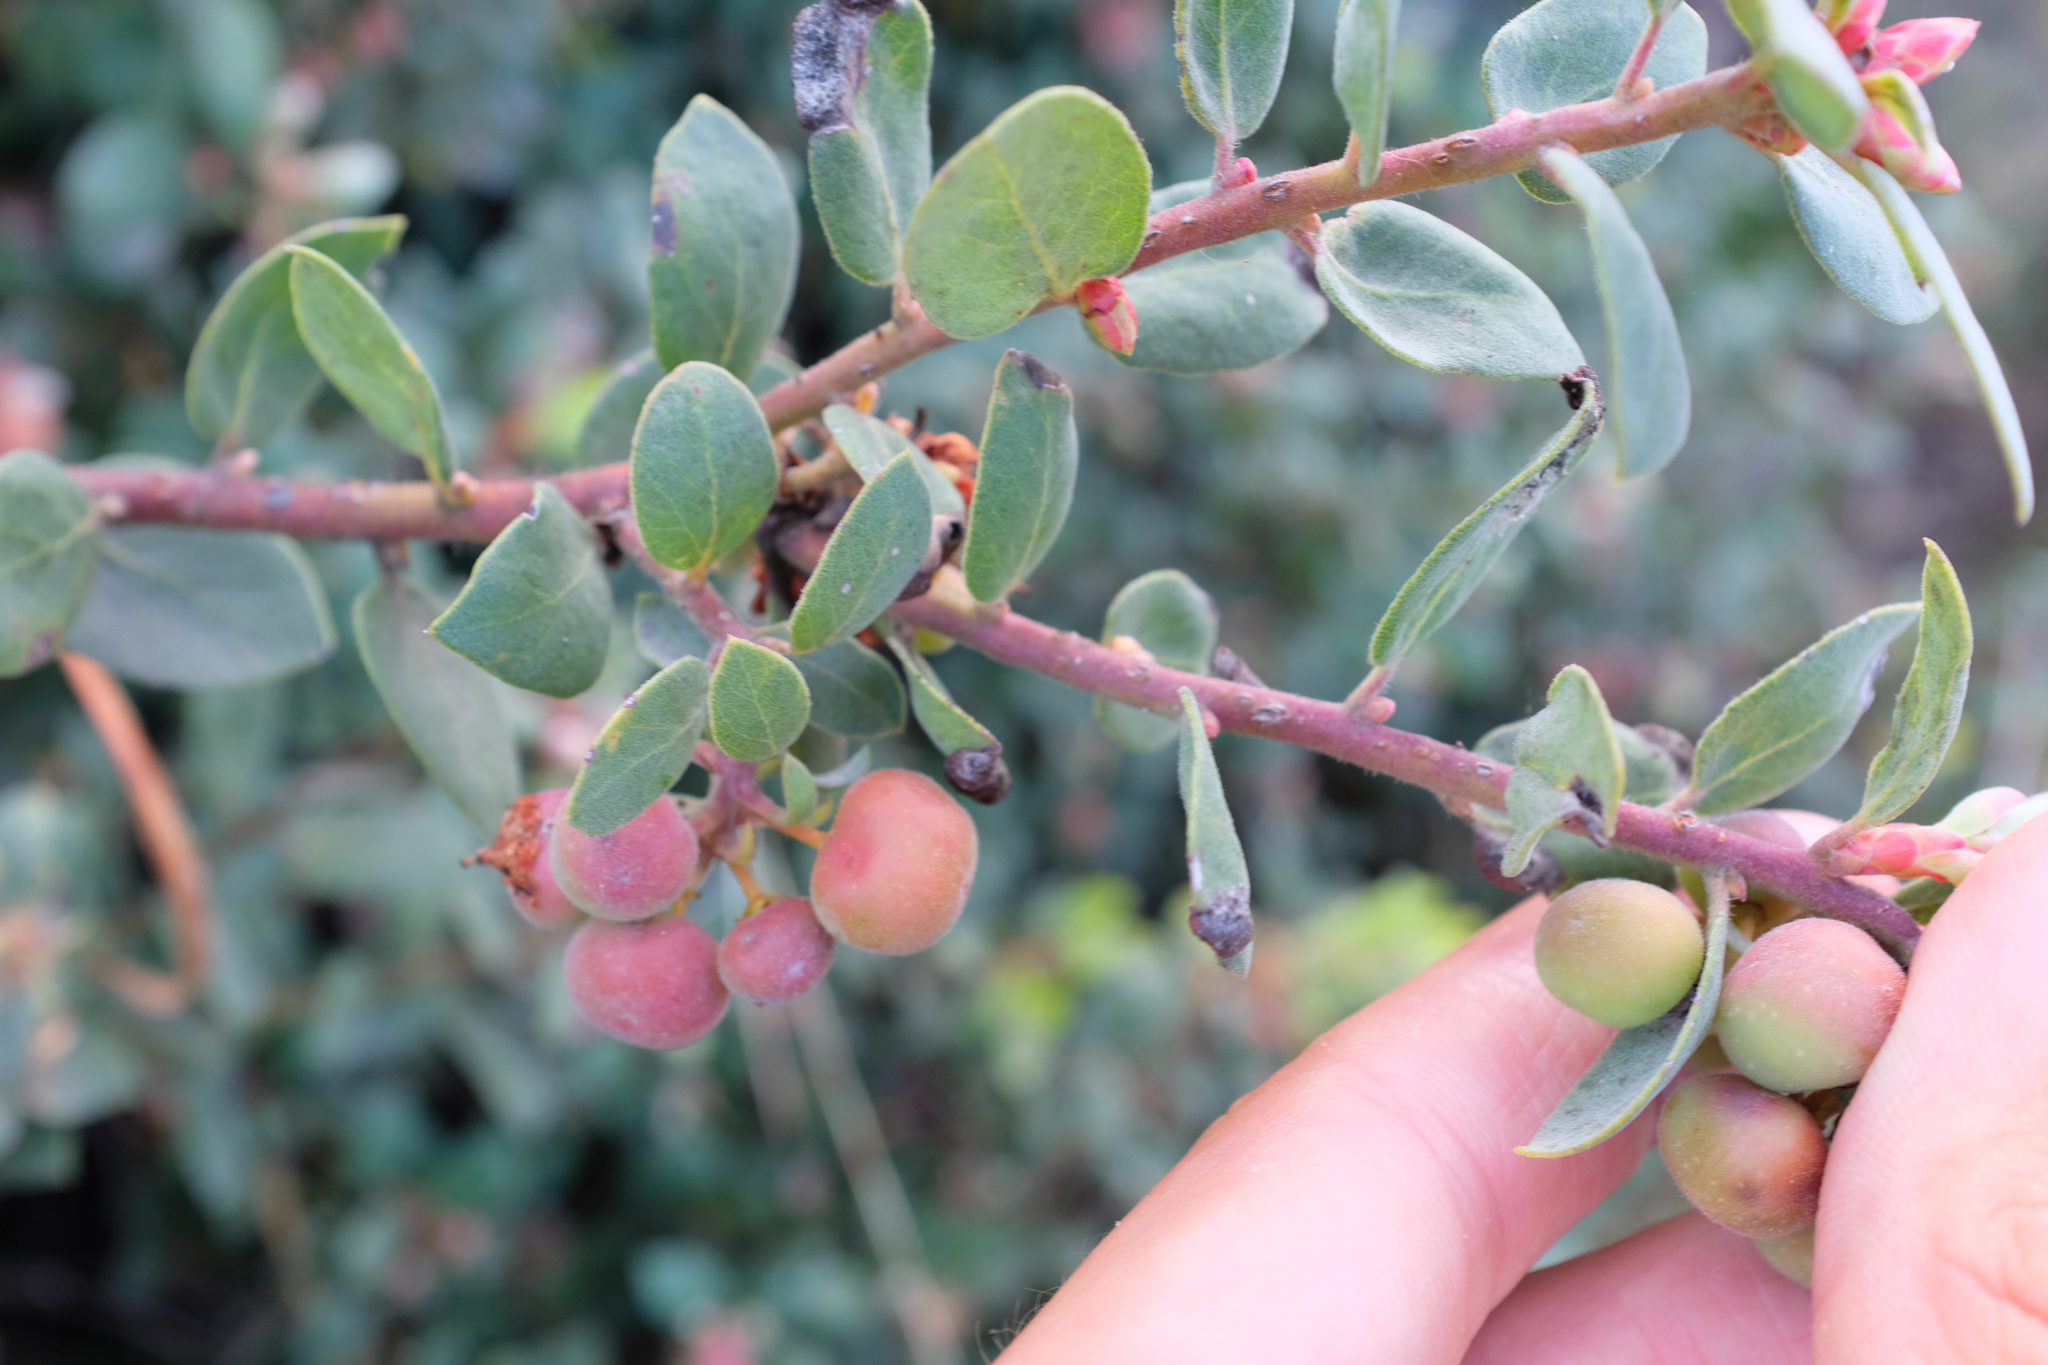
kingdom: Plantae
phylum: Tracheophyta
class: Magnoliopsida
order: Ericales
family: Ericaceae
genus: Arctostaphylos
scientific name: Arctostaphylos morroensis
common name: Morro manzanita
